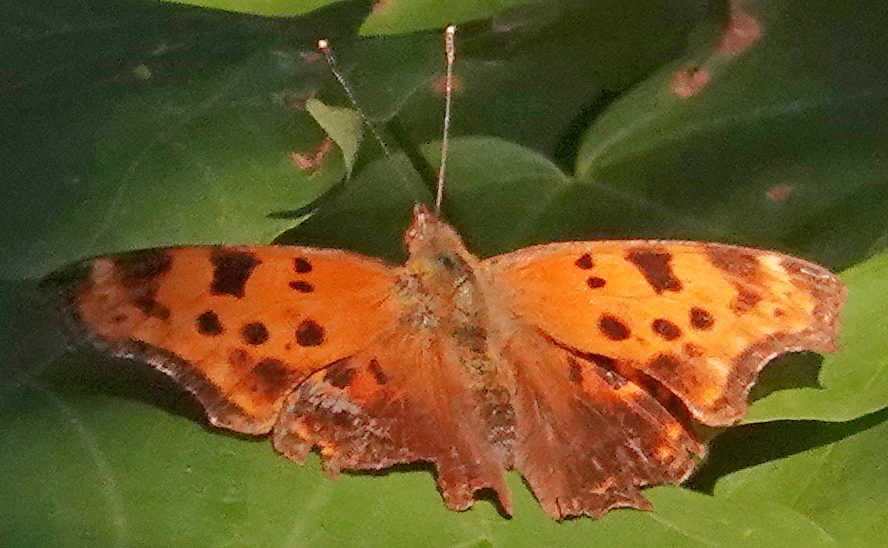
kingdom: Animalia
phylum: Arthropoda
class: Insecta
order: Lepidoptera
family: Nymphalidae
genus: Polygonia
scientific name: Polygonia comma
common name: Eastern comma
